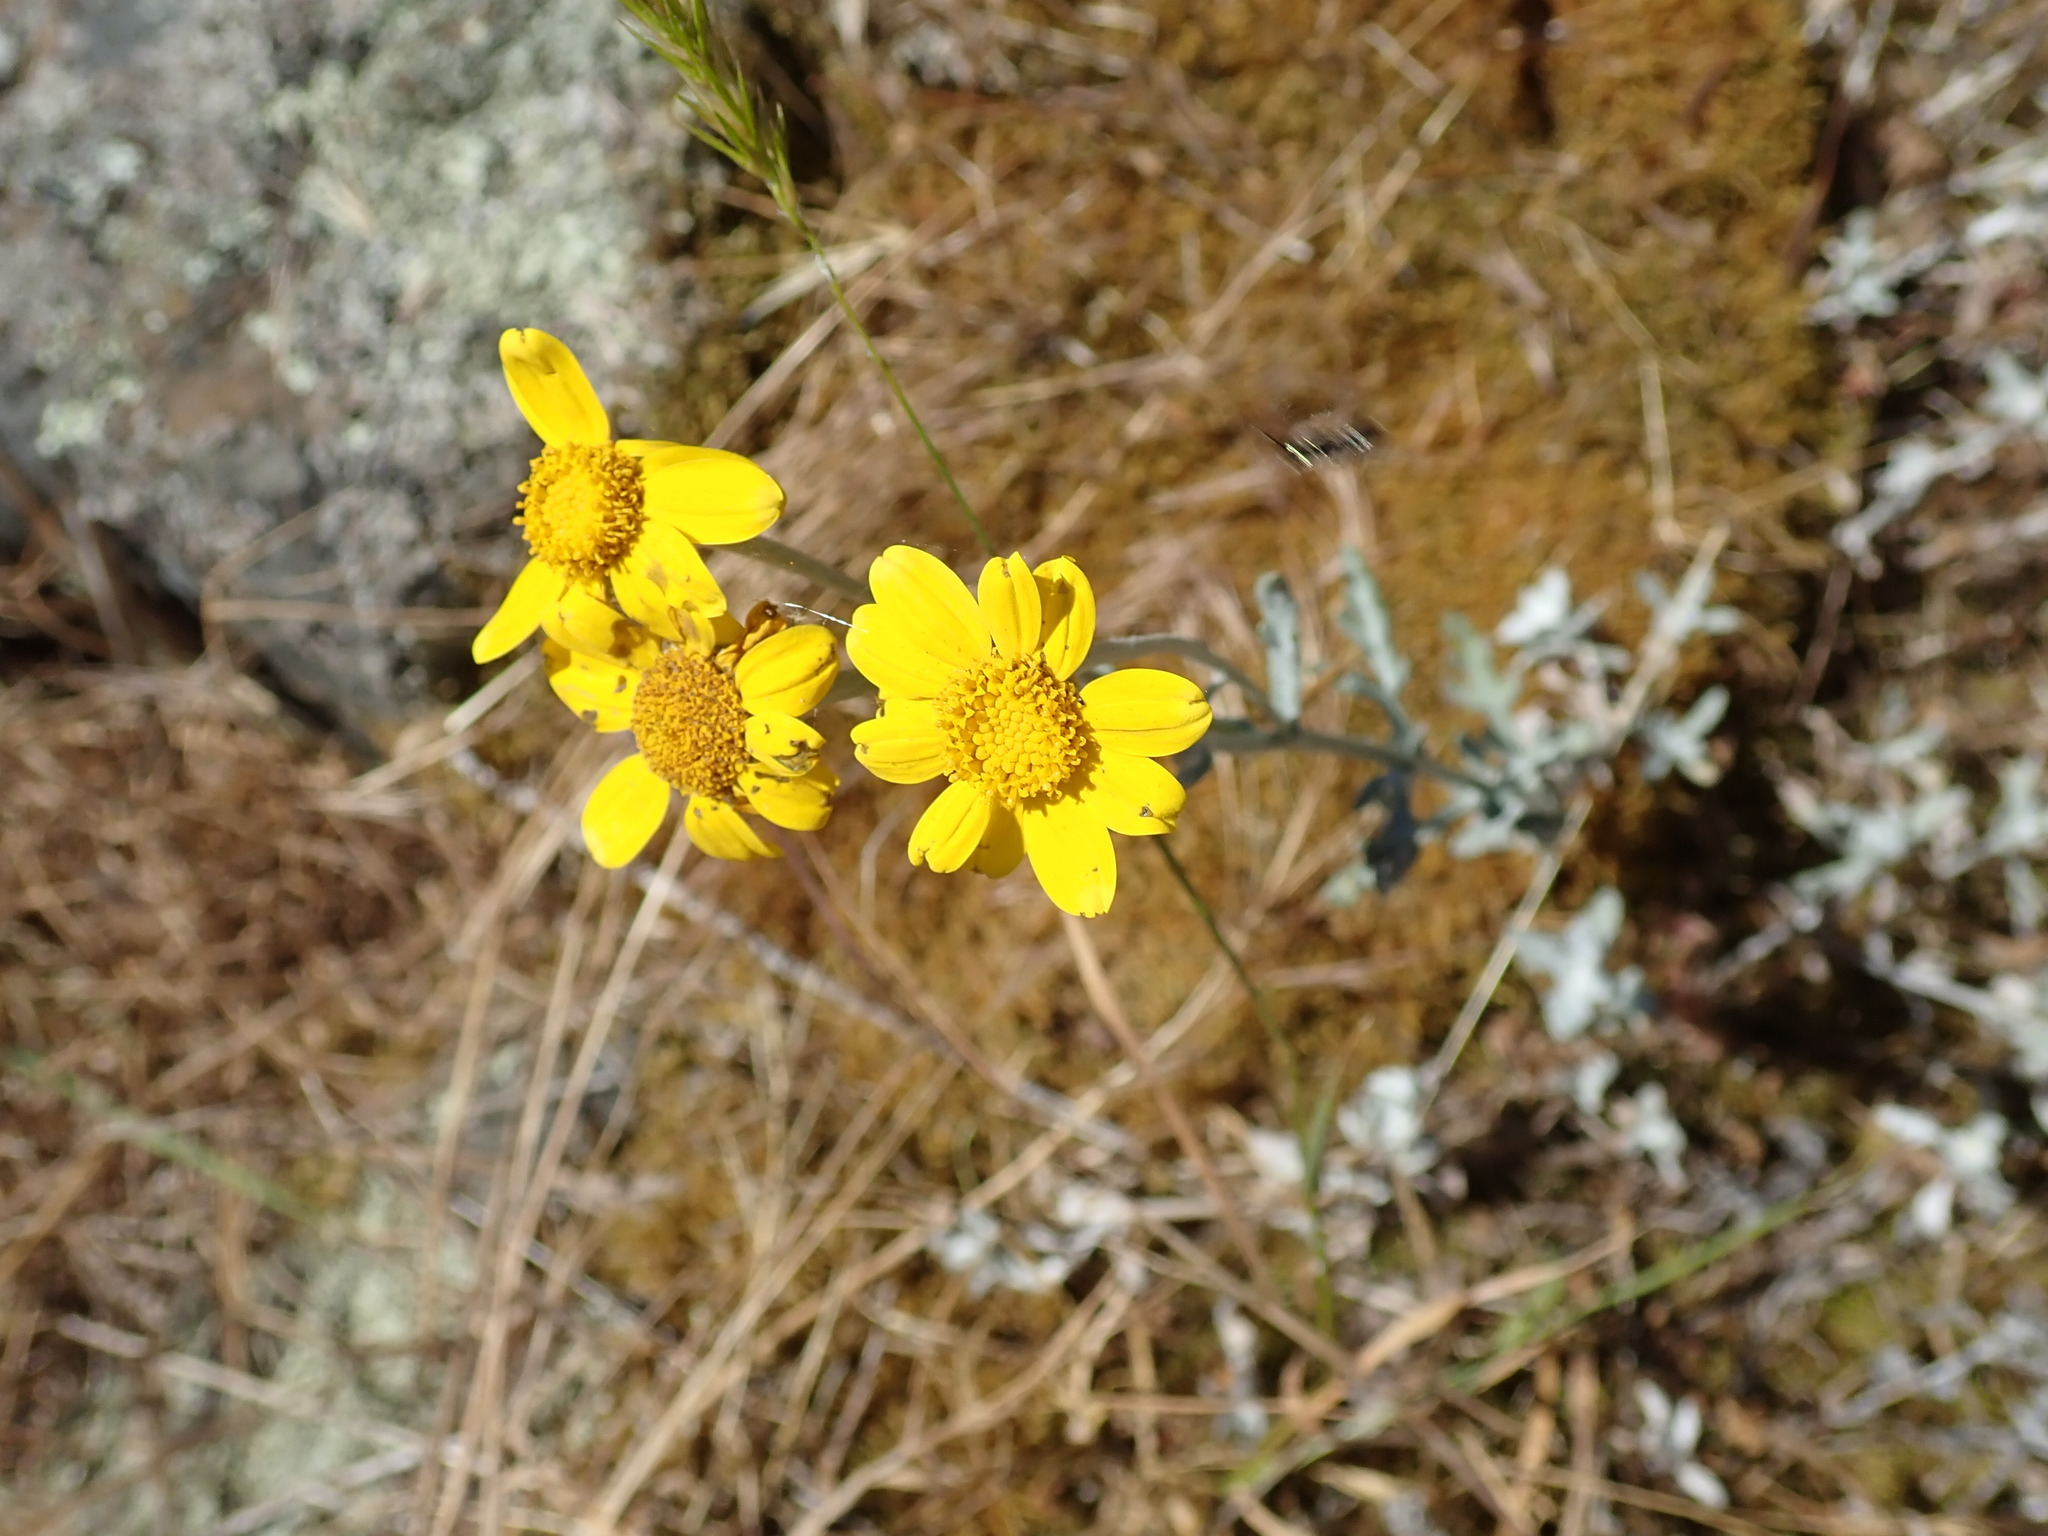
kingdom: Plantae
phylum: Tracheophyta
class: Magnoliopsida
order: Asterales
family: Asteraceae
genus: Eriophyllum
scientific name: Eriophyllum lanatum
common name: Common woolly-sunflower
